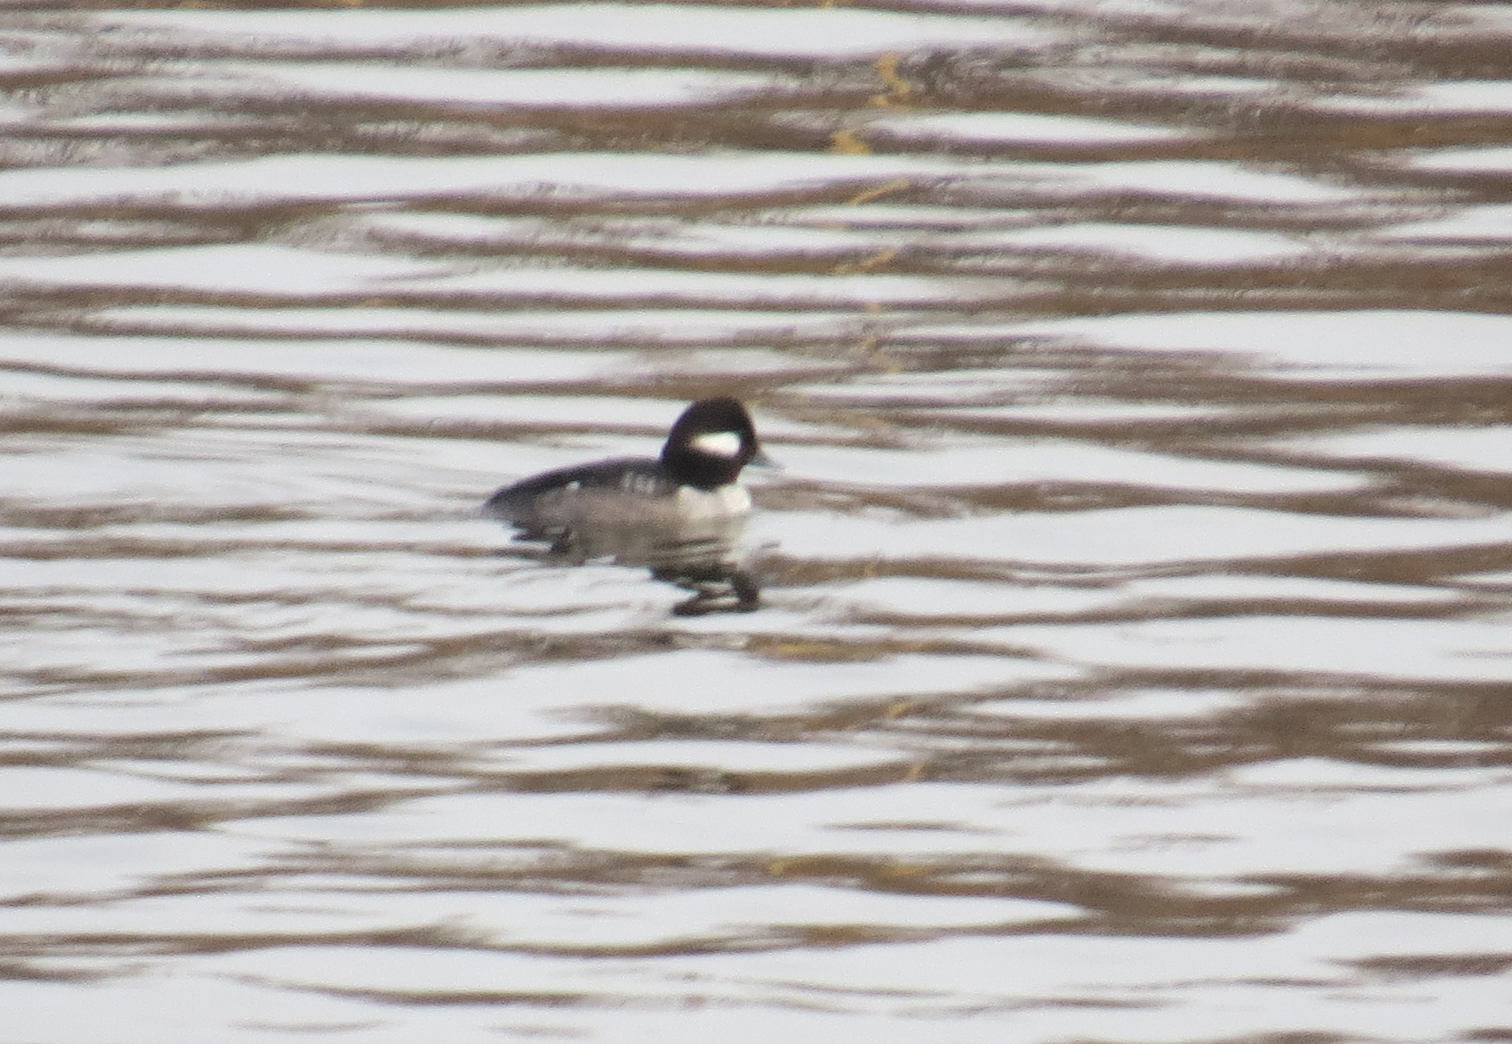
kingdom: Animalia
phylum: Chordata
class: Aves
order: Anseriformes
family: Anatidae
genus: Bucephala
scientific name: Bucephala albeola
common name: Bufflehead
